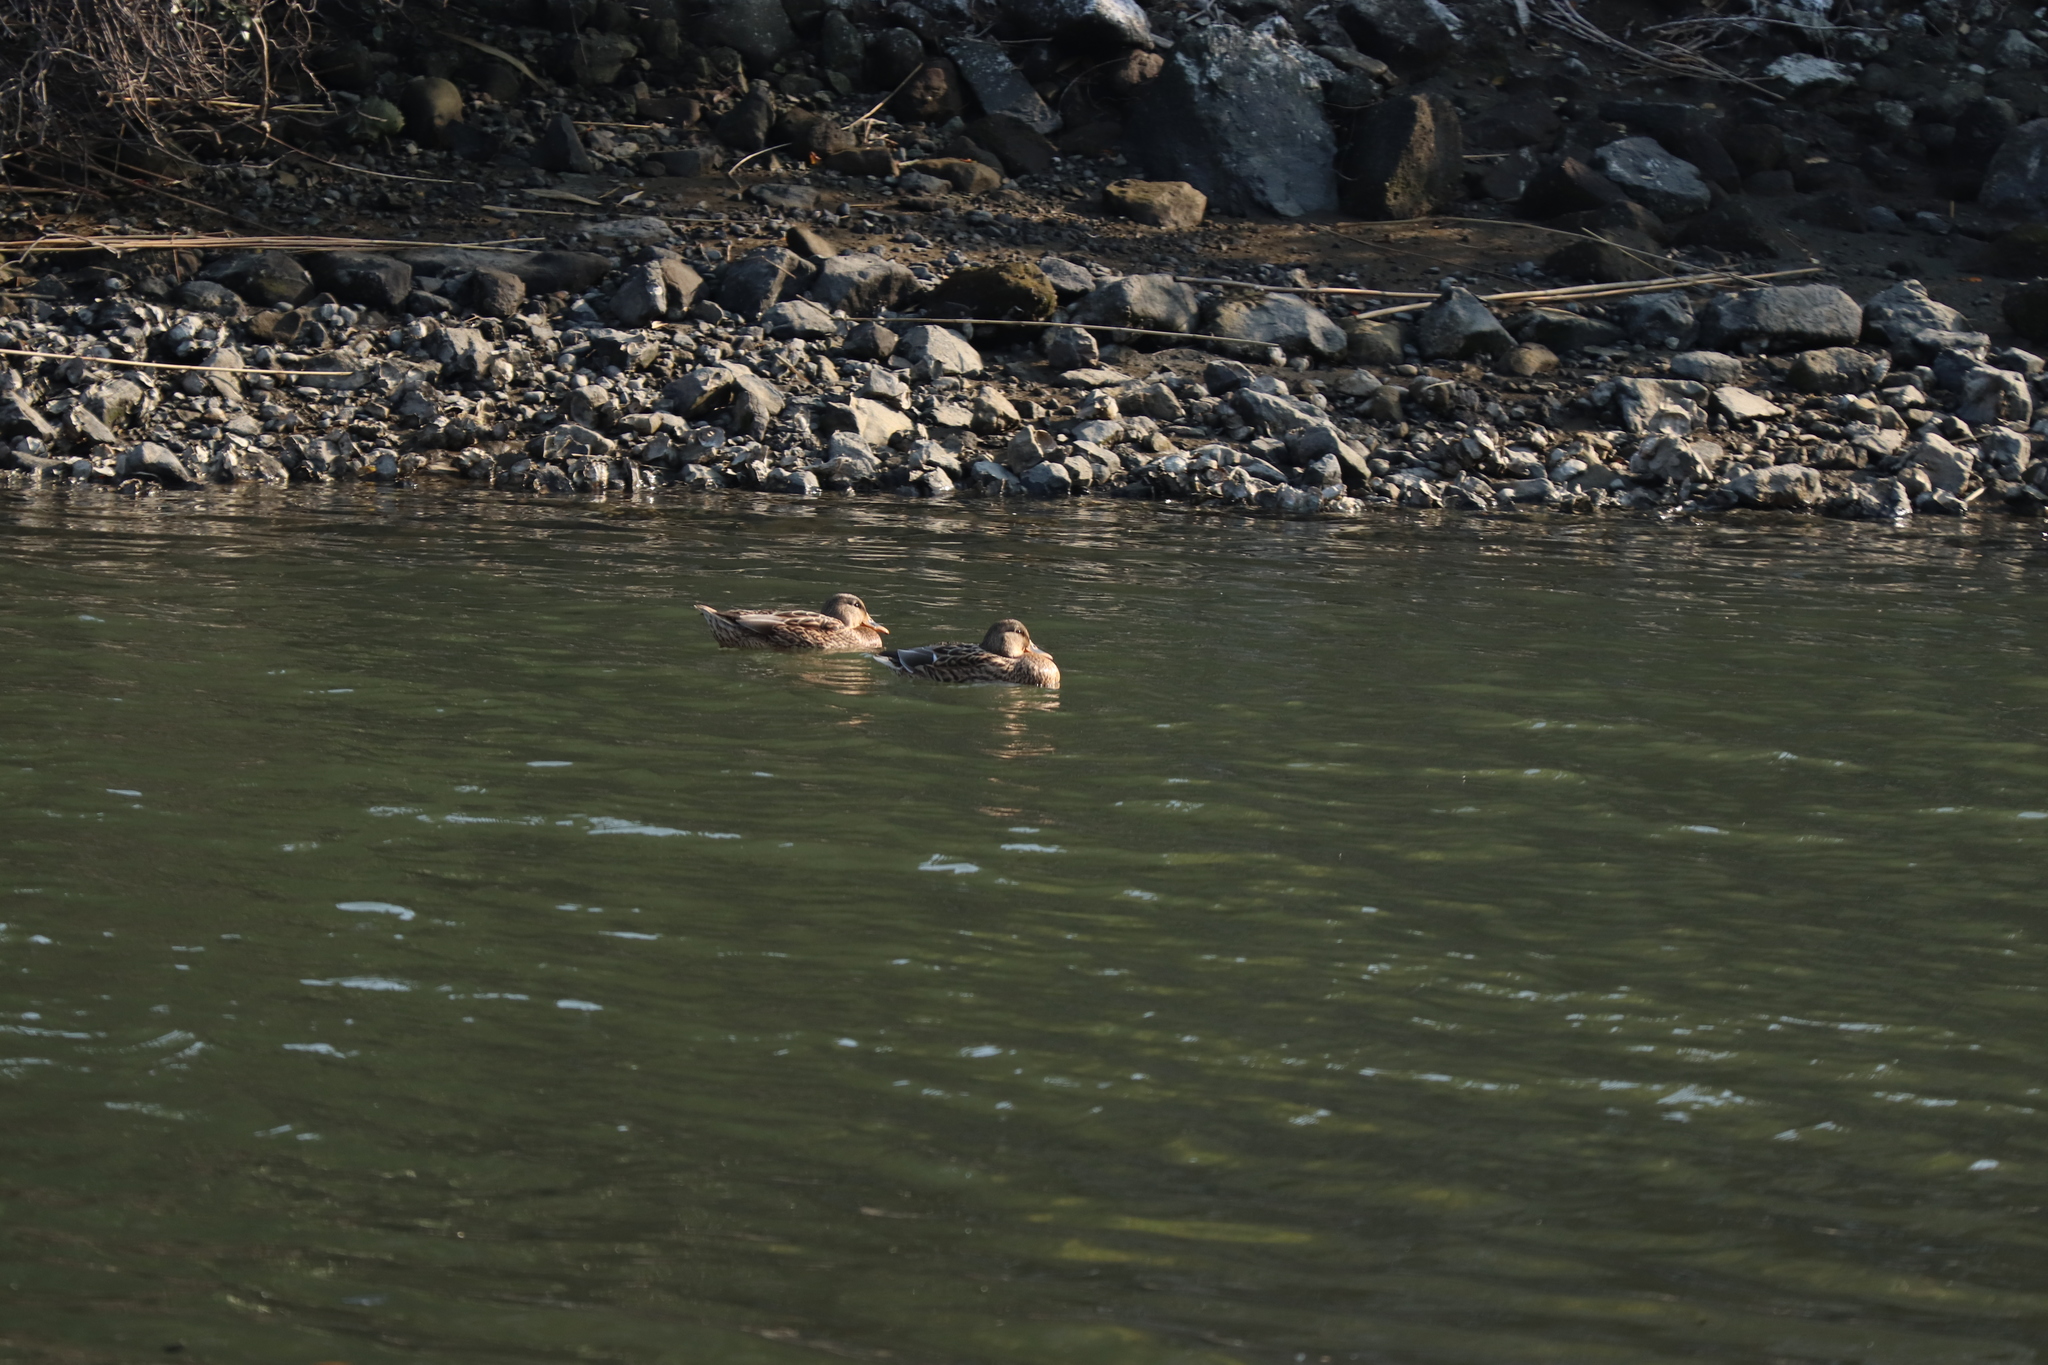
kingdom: Animalia
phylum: Chordata
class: Aves
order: Anseriformes
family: Anatidae
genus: Anas
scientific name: Anas platyrhynchos
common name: Mallard
